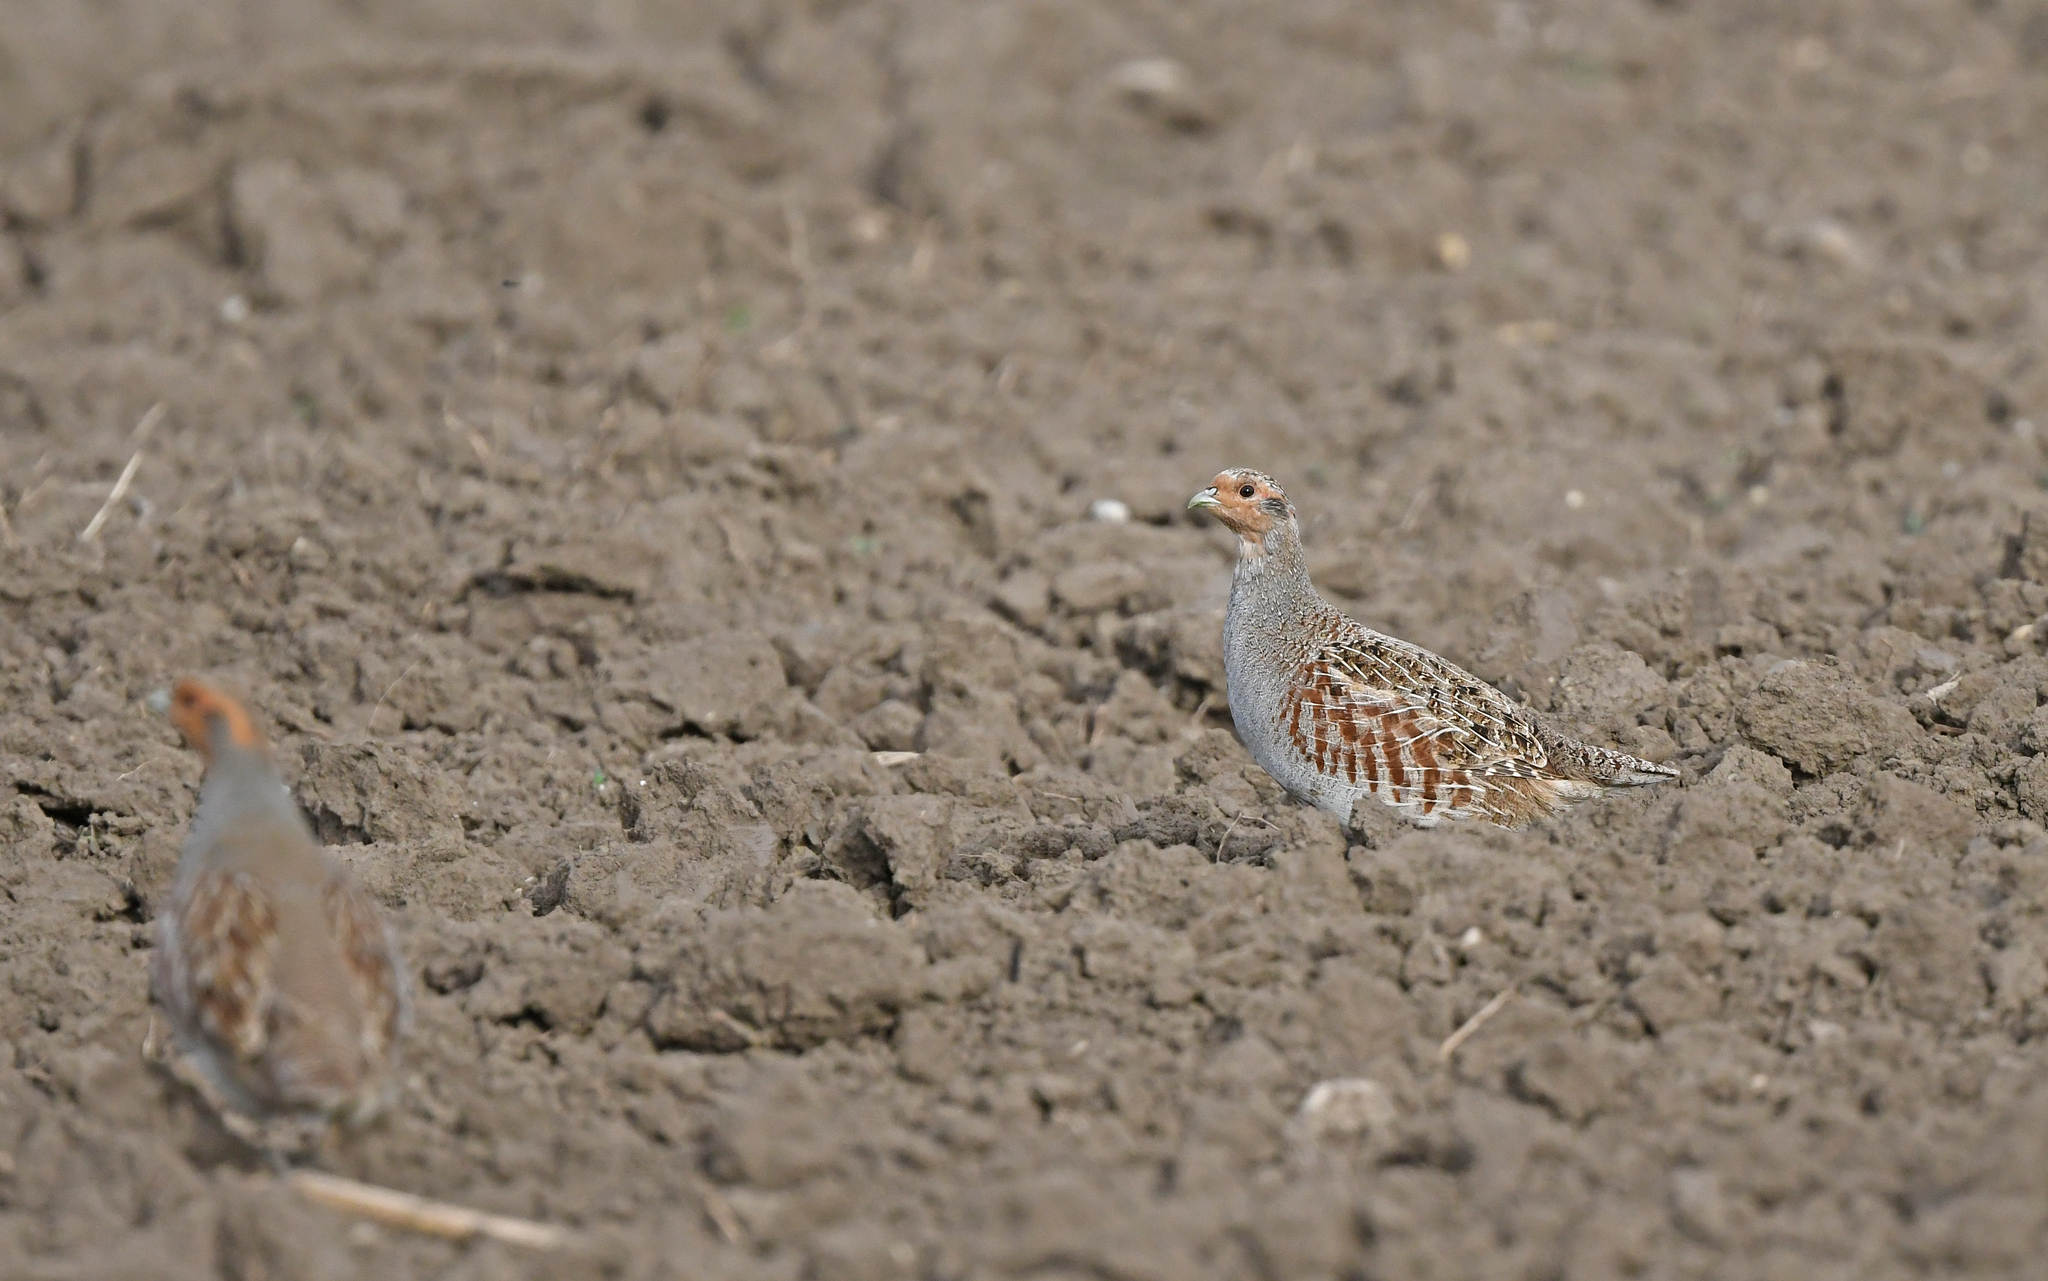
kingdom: Animalia
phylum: Chordata
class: Aves
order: Galliformes
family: Phasianidae
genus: Perdix
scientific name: Perdix perdix
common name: Grey partridge
